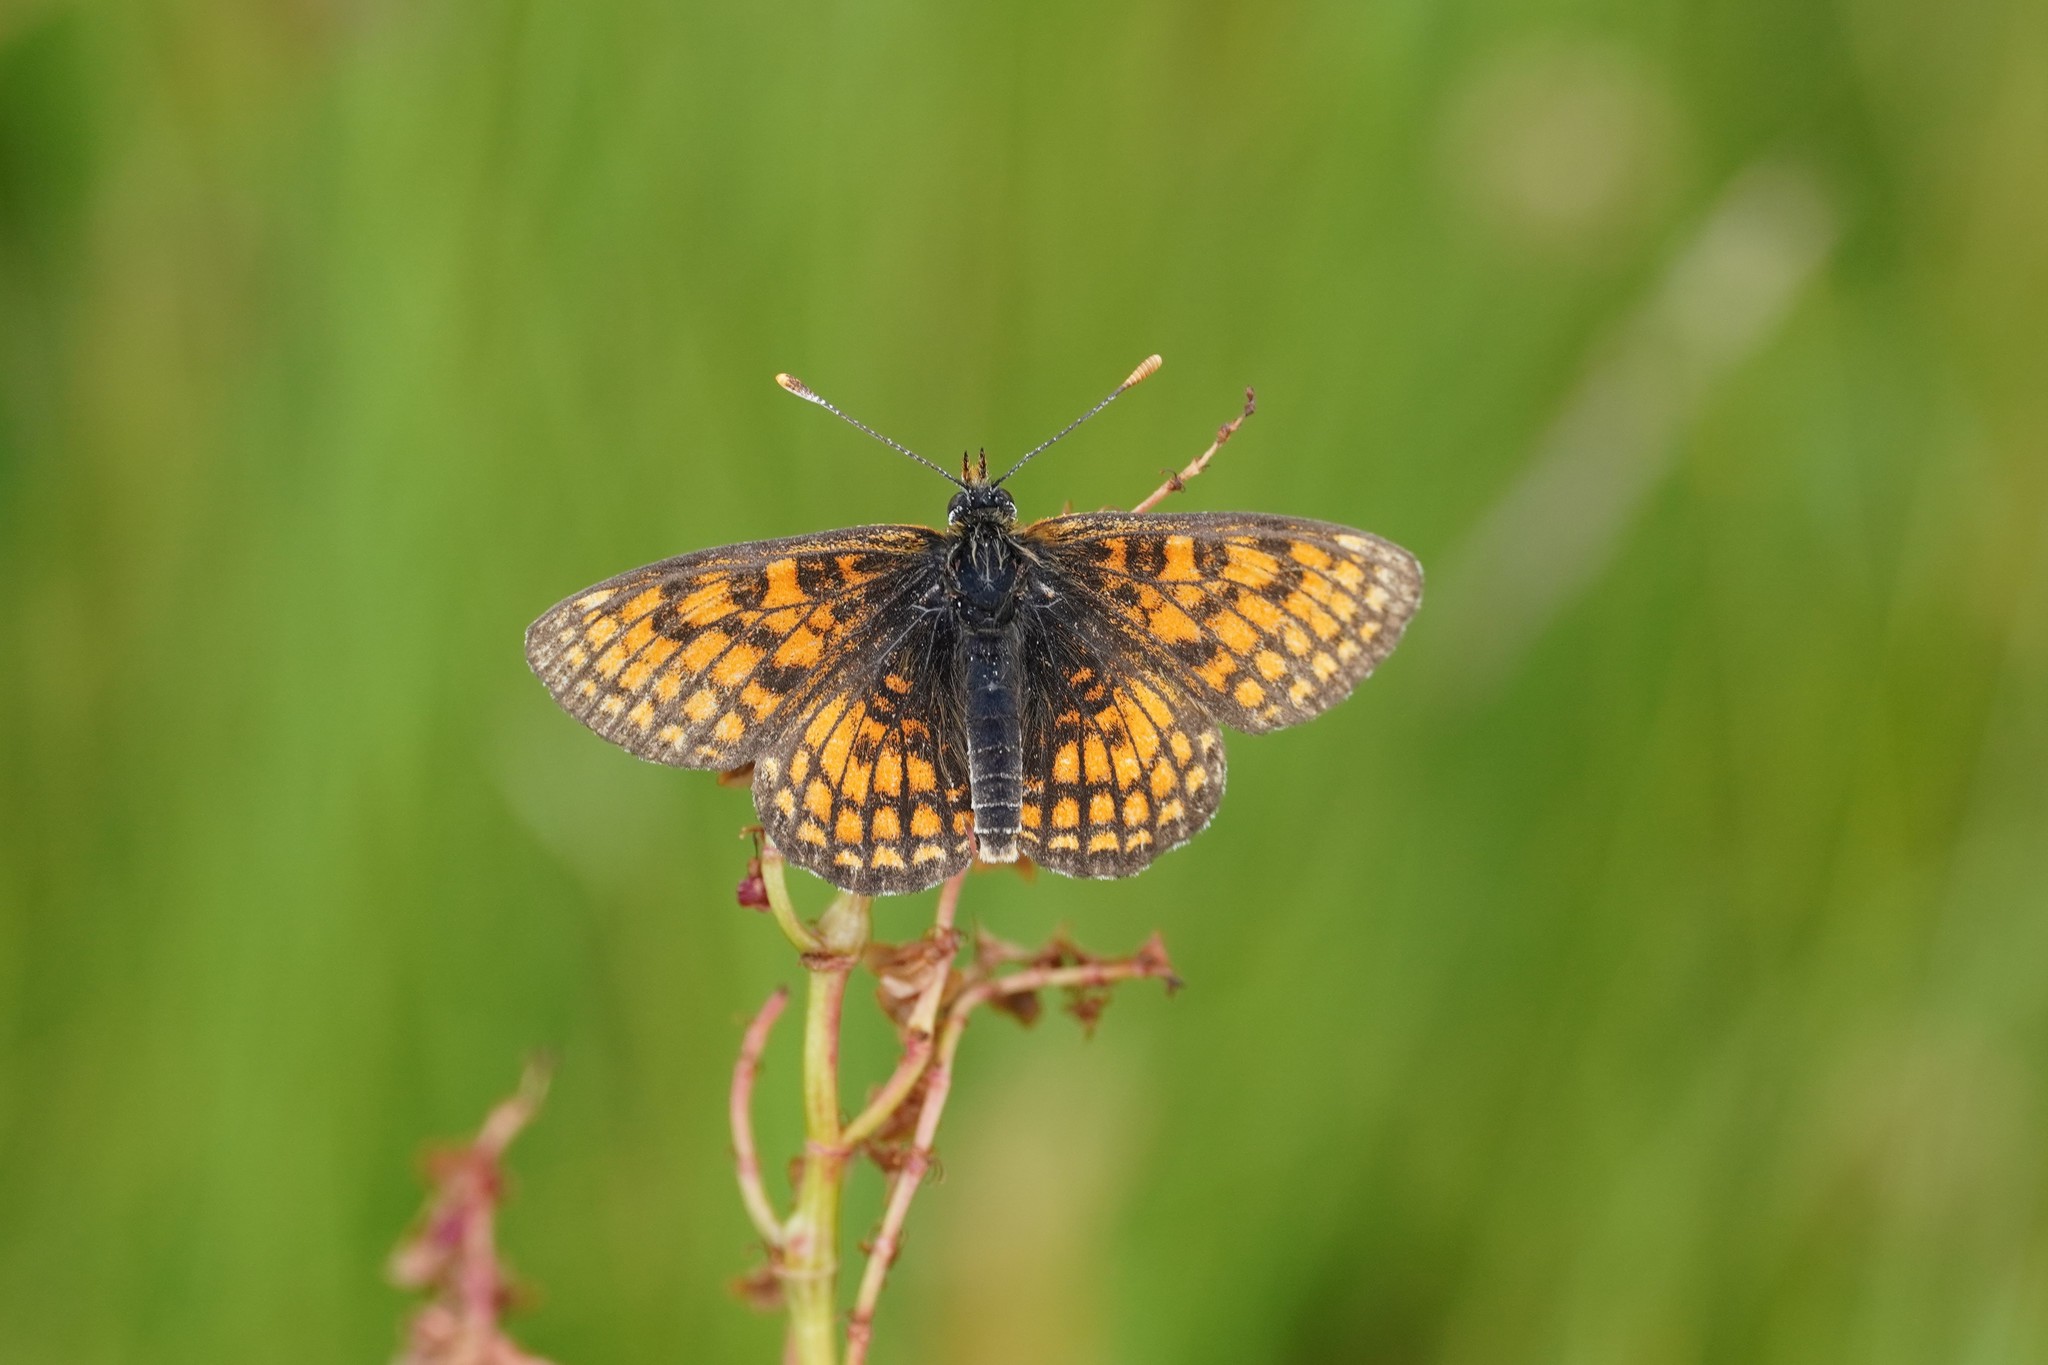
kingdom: Animalia
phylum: Arthropoda
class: Insecta
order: Lepidoptera
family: Nymphalidae
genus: Mellicta
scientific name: Mellicta parthenoides
